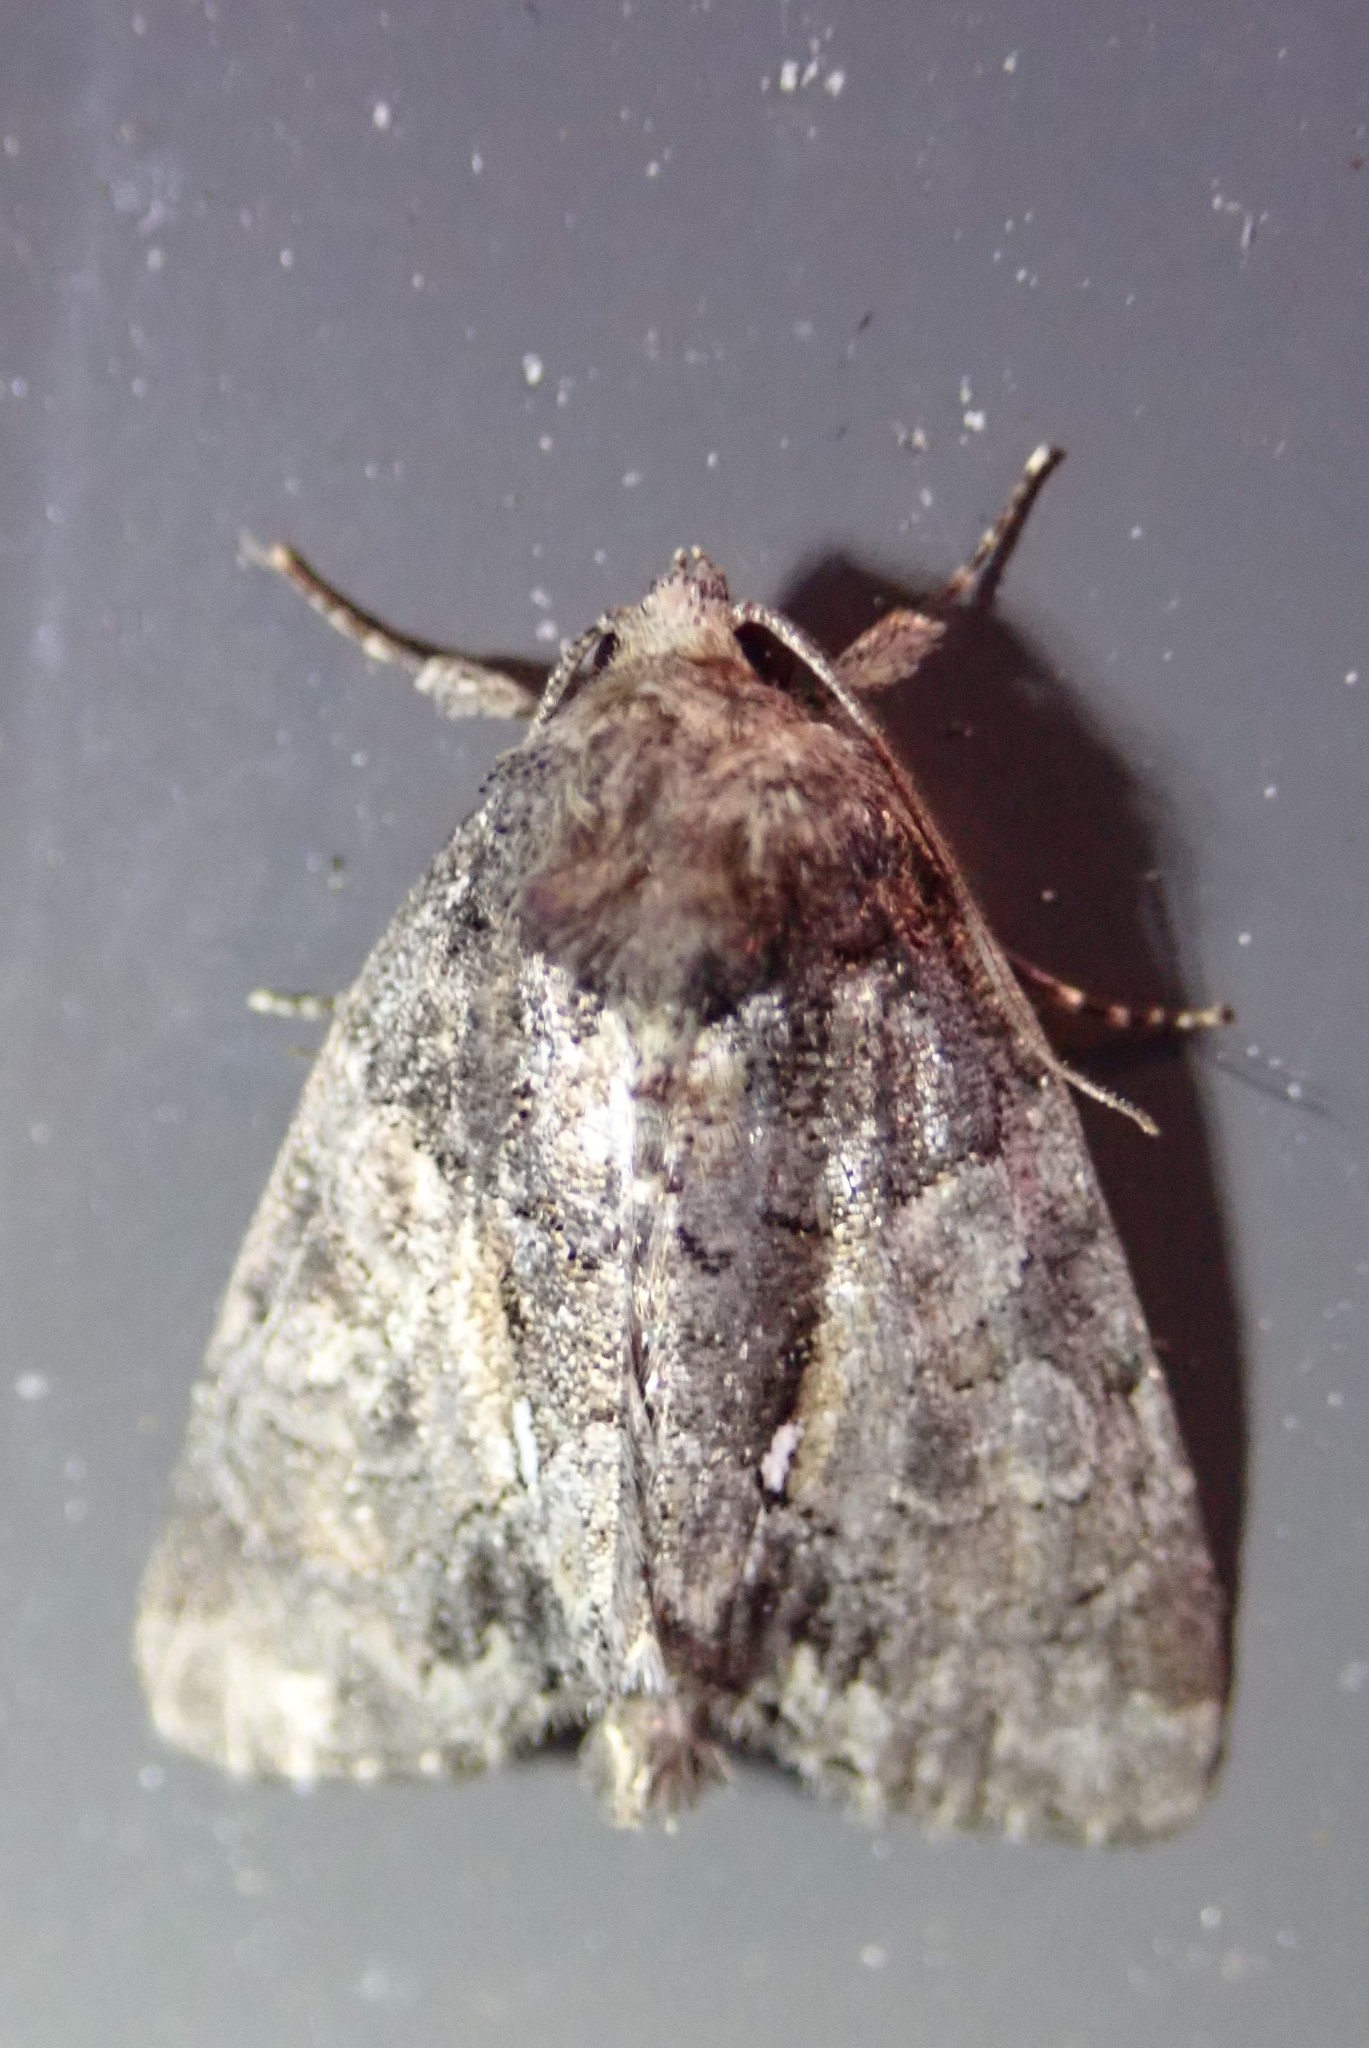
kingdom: Animalia
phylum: Arthropoda
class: Insecta
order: Lepidoptera
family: Noctuidae
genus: Chytonix
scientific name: Chytonix palliatricula
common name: Cloaked marvel
